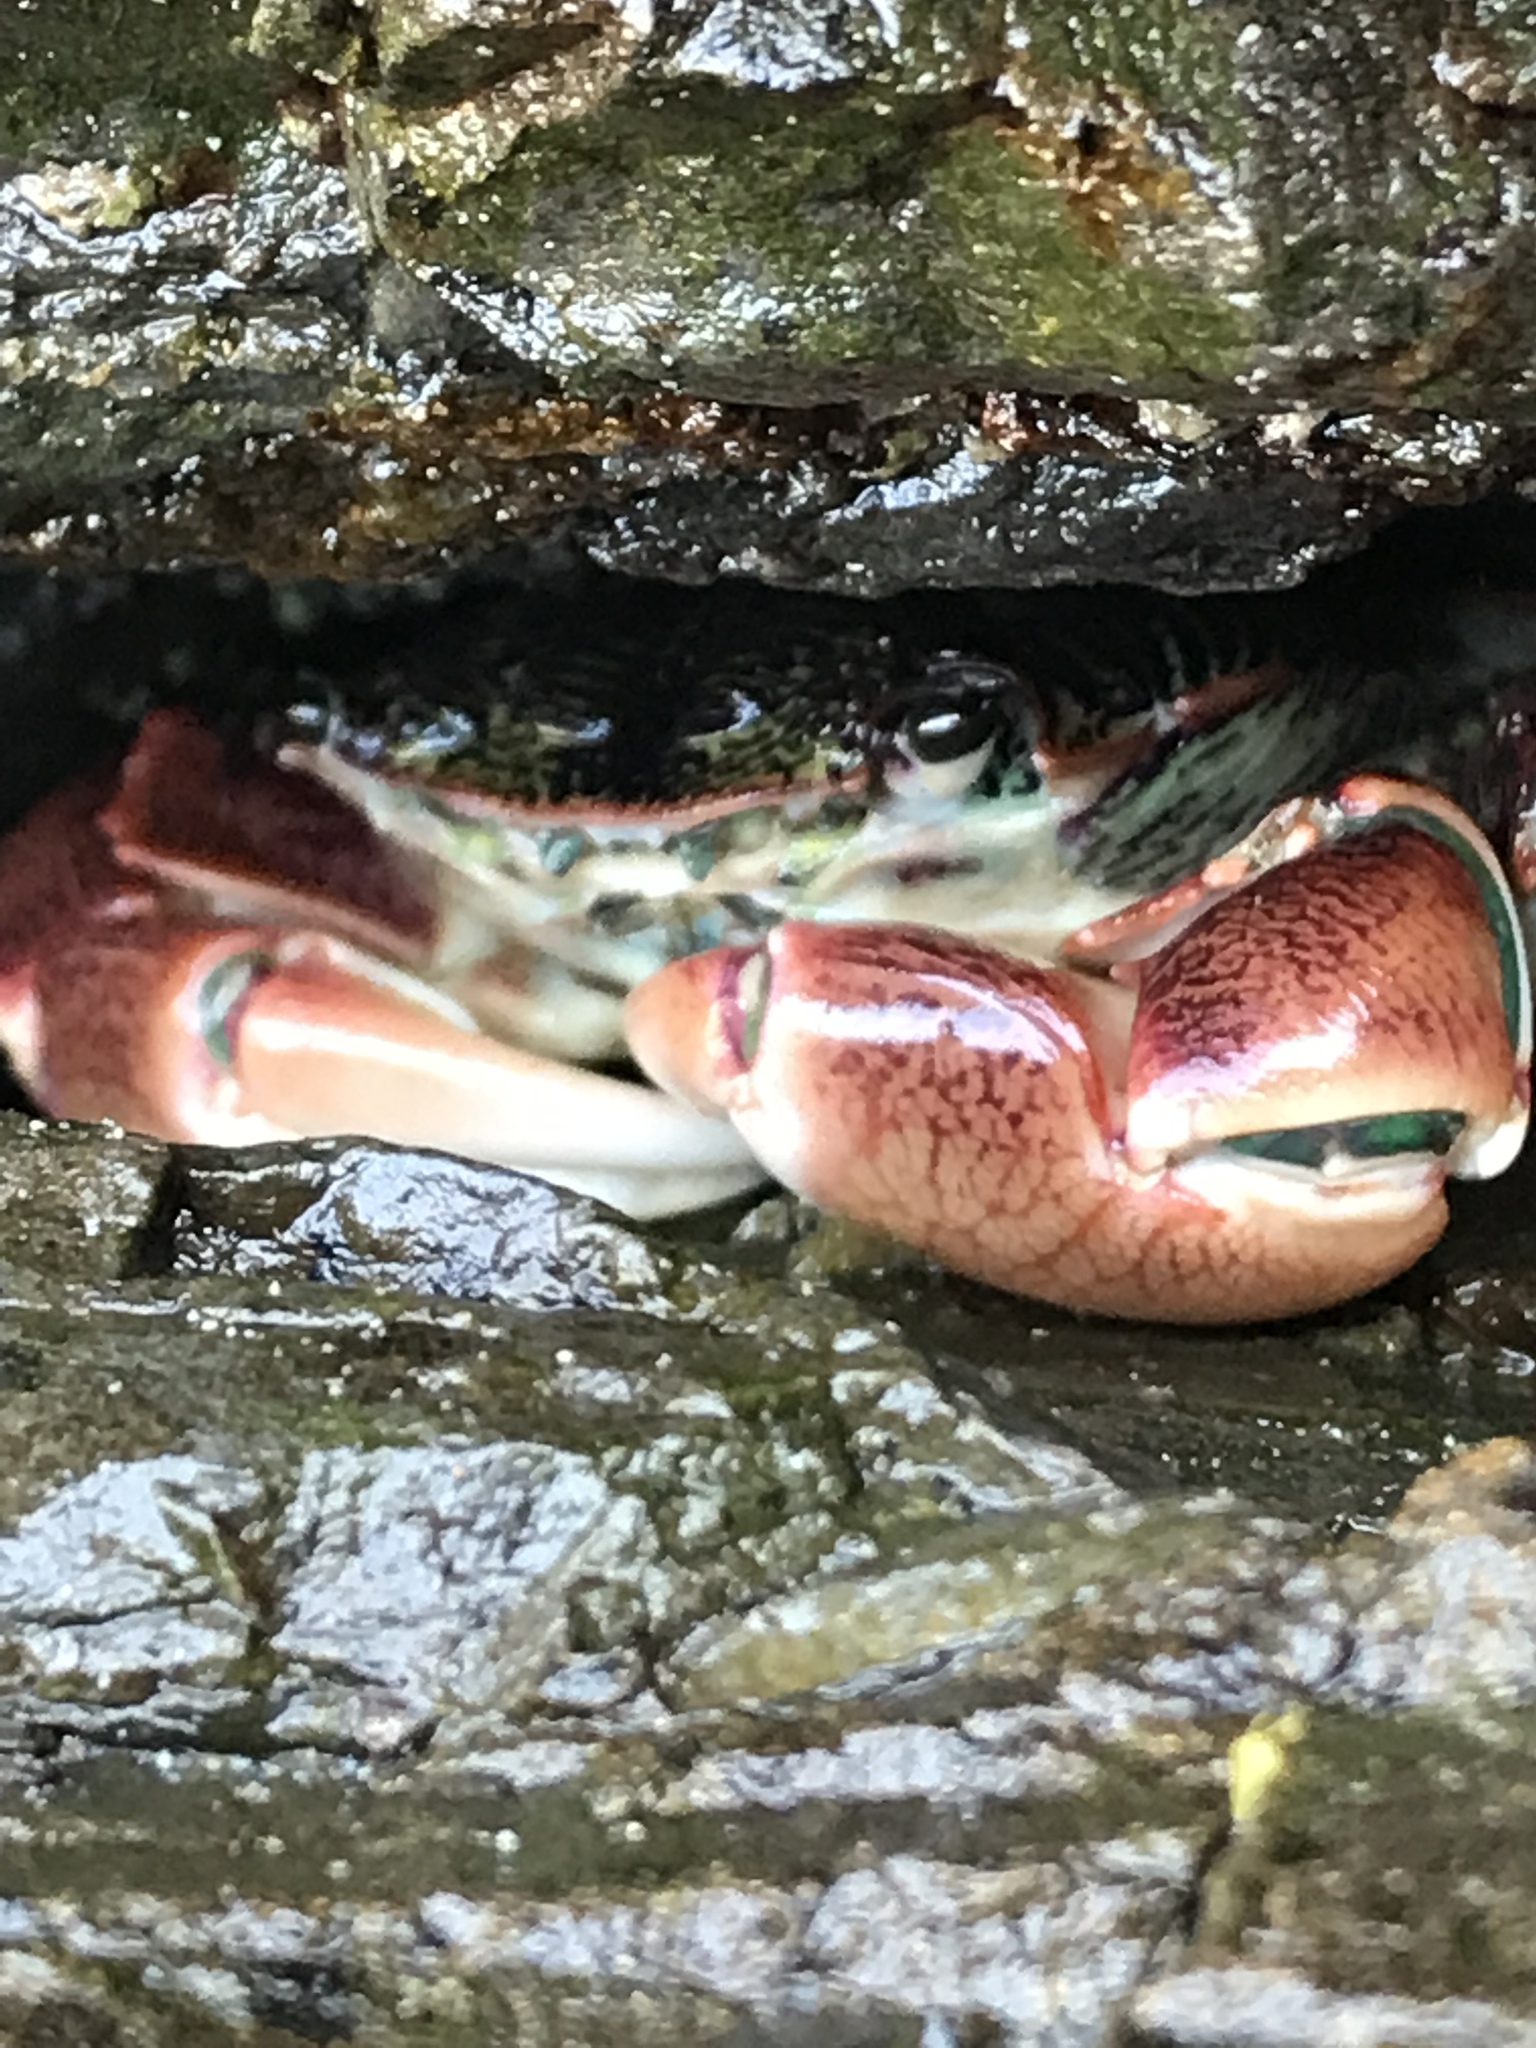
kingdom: Animalia
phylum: Arthropoda
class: Malacostraca
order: Decapoda
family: Grapsidae
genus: Pachygrapsus
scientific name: Pachygrapsus crassipes
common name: Striped shore crab
